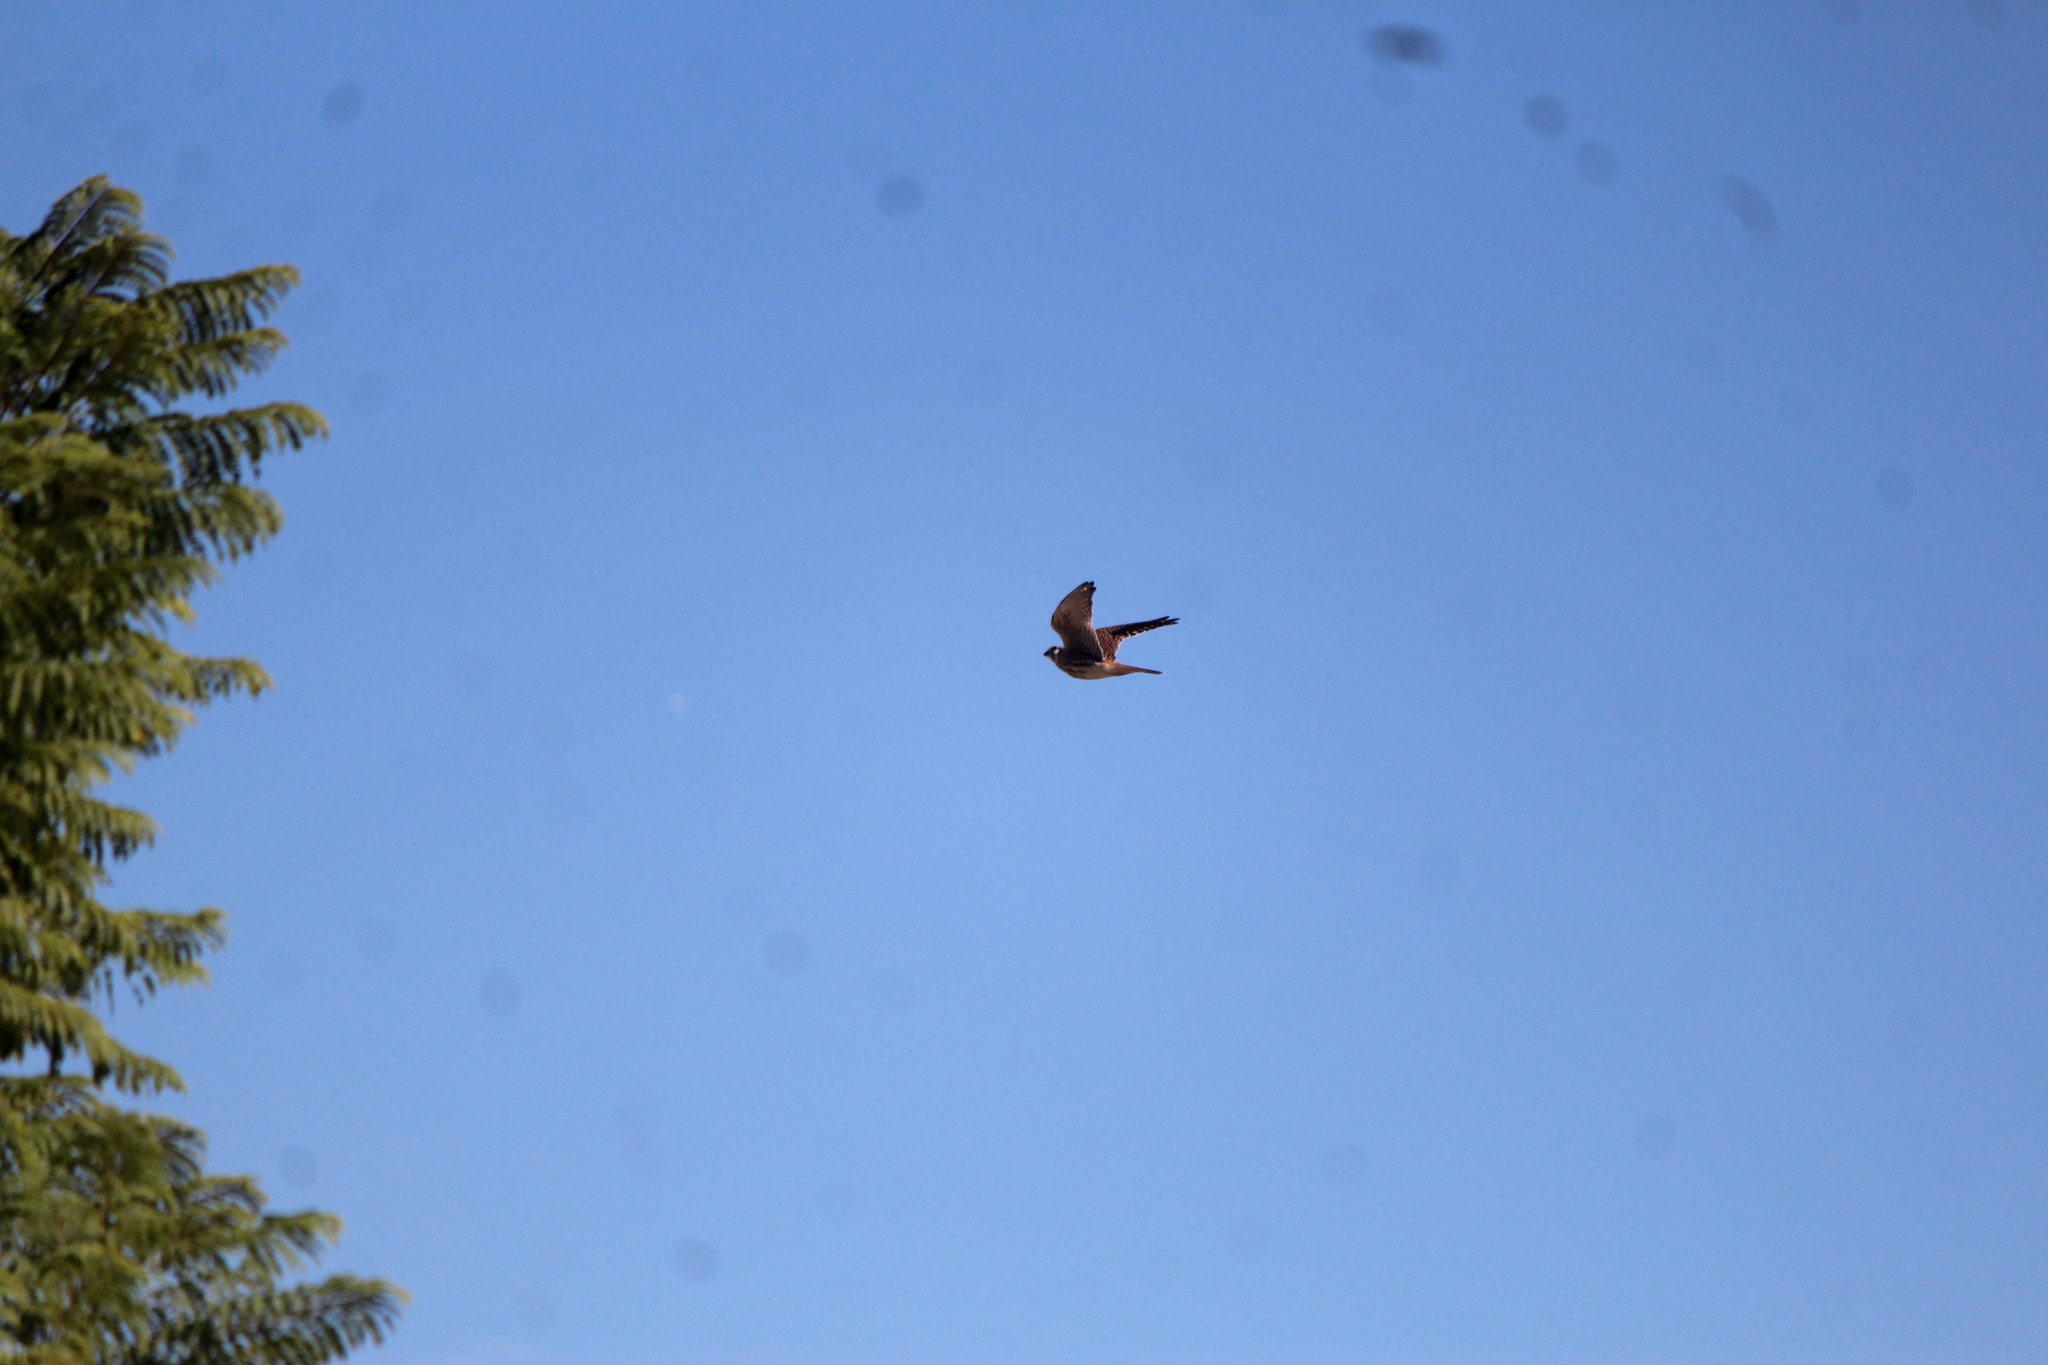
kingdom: Animalia
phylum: Chordata
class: Aves
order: Falconiformes
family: Falconidae
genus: Falco
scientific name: Falco sparverius
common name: American kestrel
